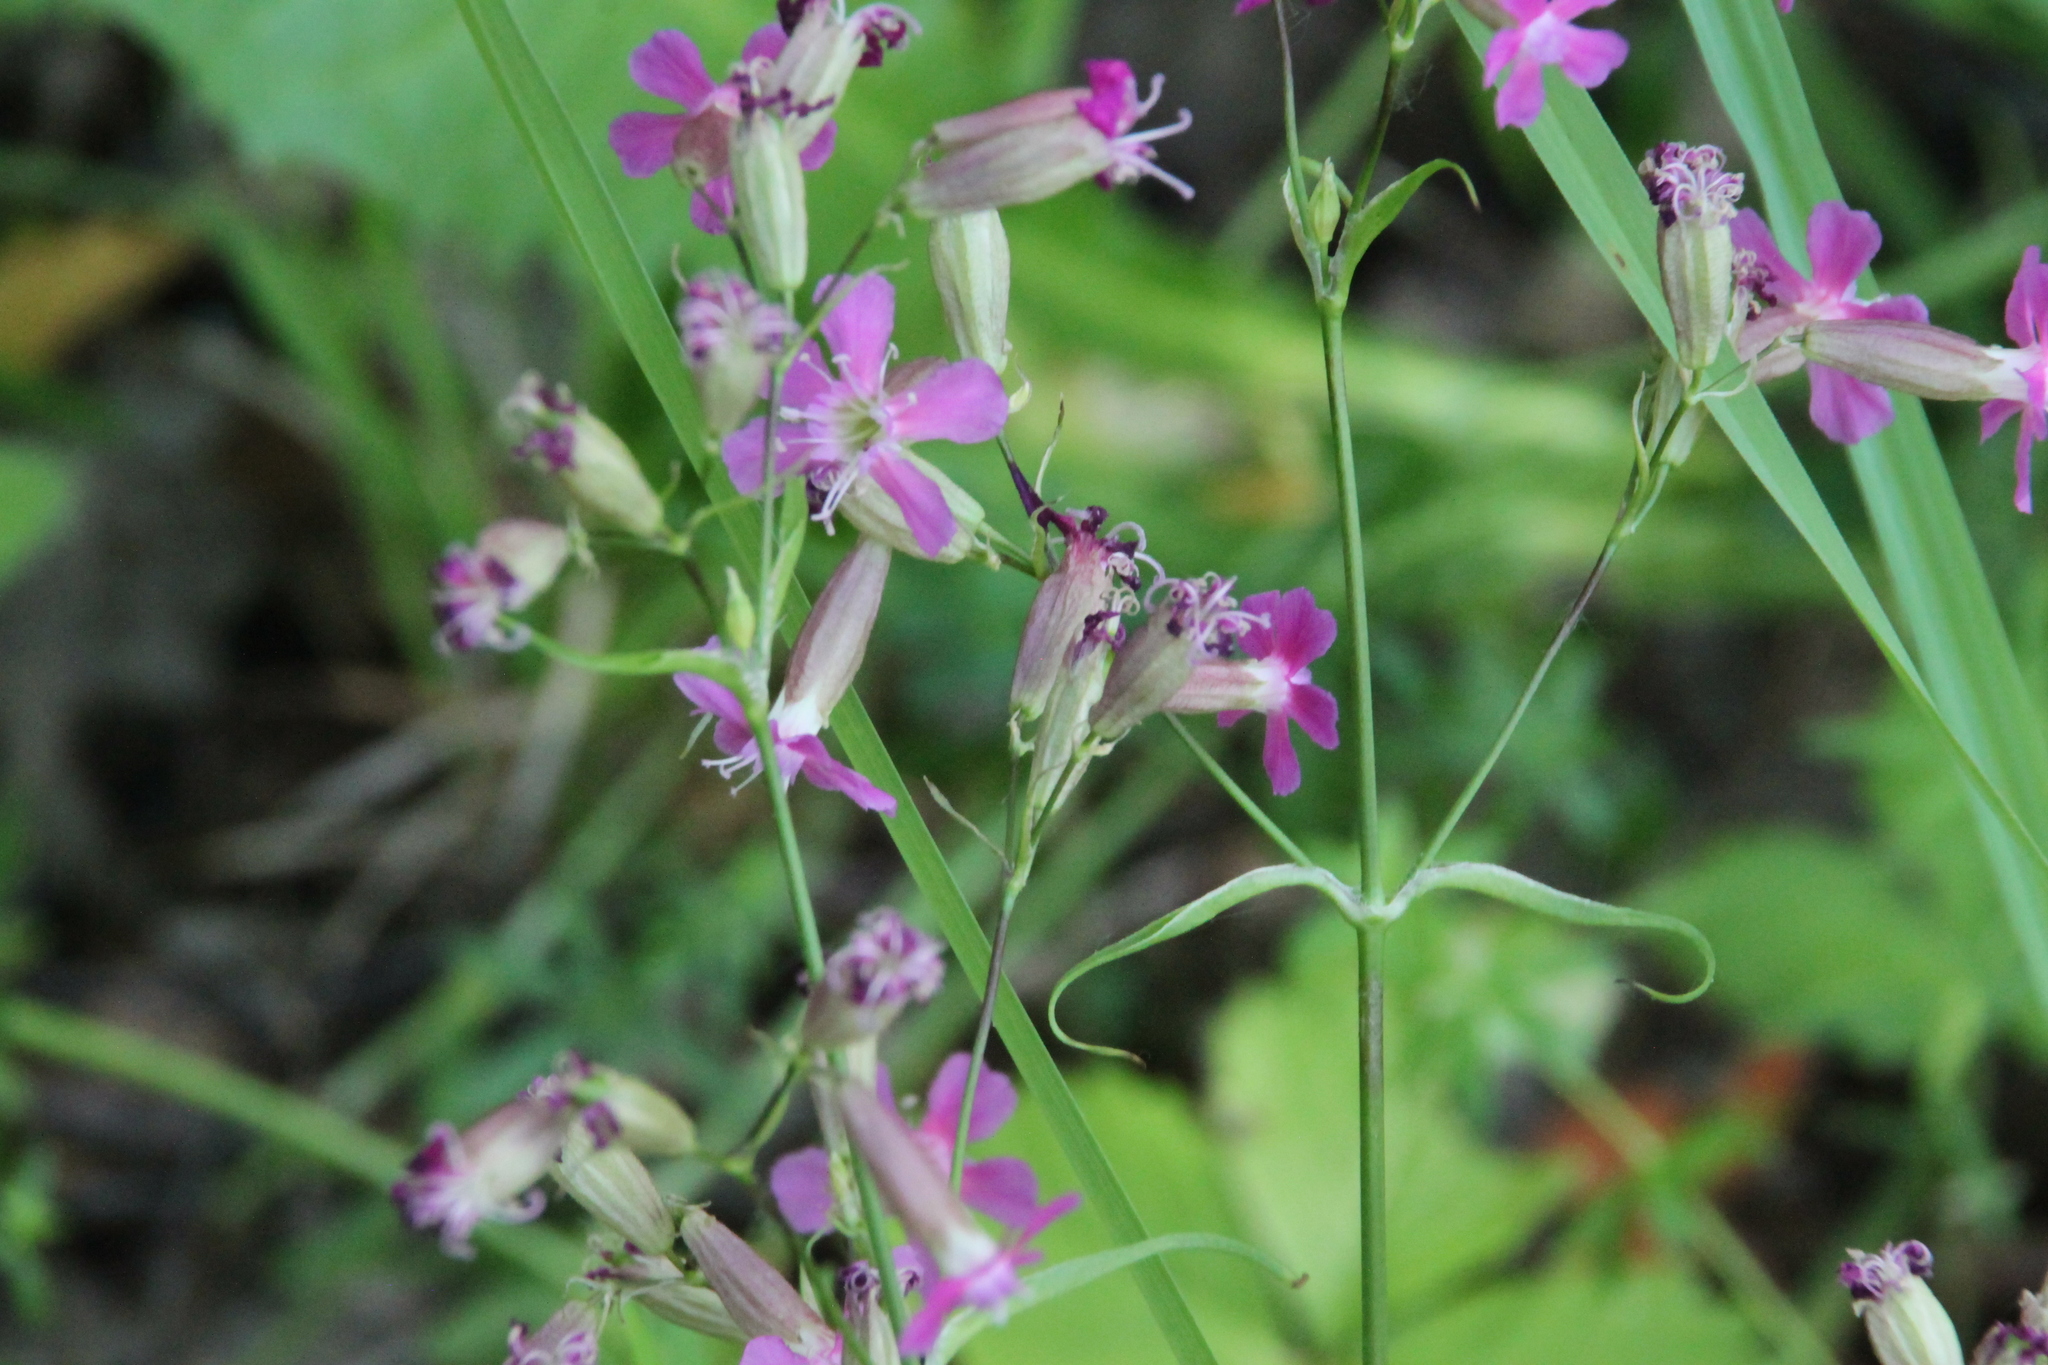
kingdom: Plantae
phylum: Tracheophyta
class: Magnoliopsida
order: Caryophyllales
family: Caryophyllaceae
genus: Viscaria
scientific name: Viscaria vulgaris
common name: Clammy campion
